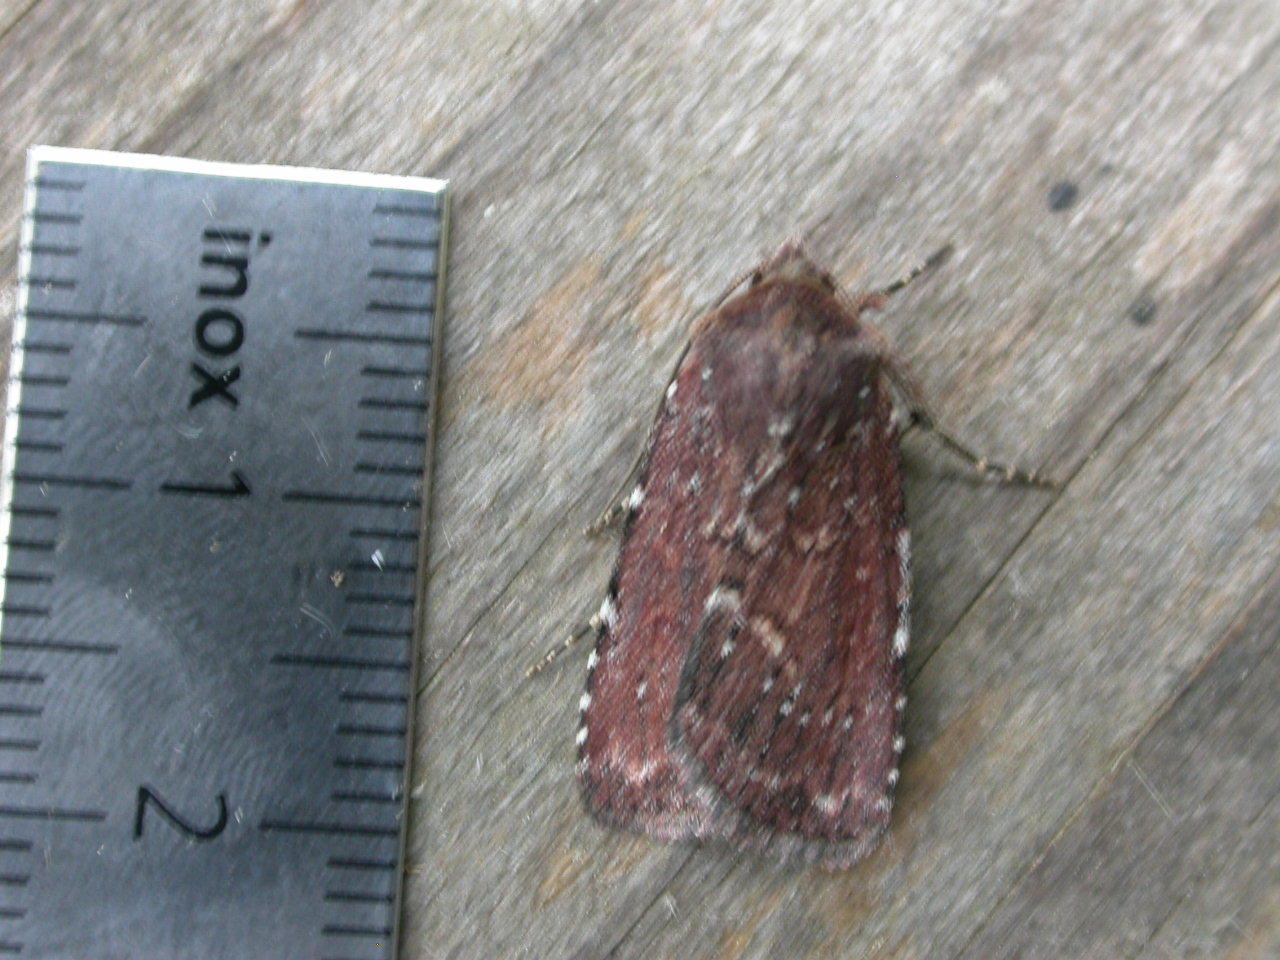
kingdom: Animalia
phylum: Arthropoda
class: Insecta
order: Lepidoptera
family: Noctuidae
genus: Lycophotia
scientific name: Lycophotia erythrina
